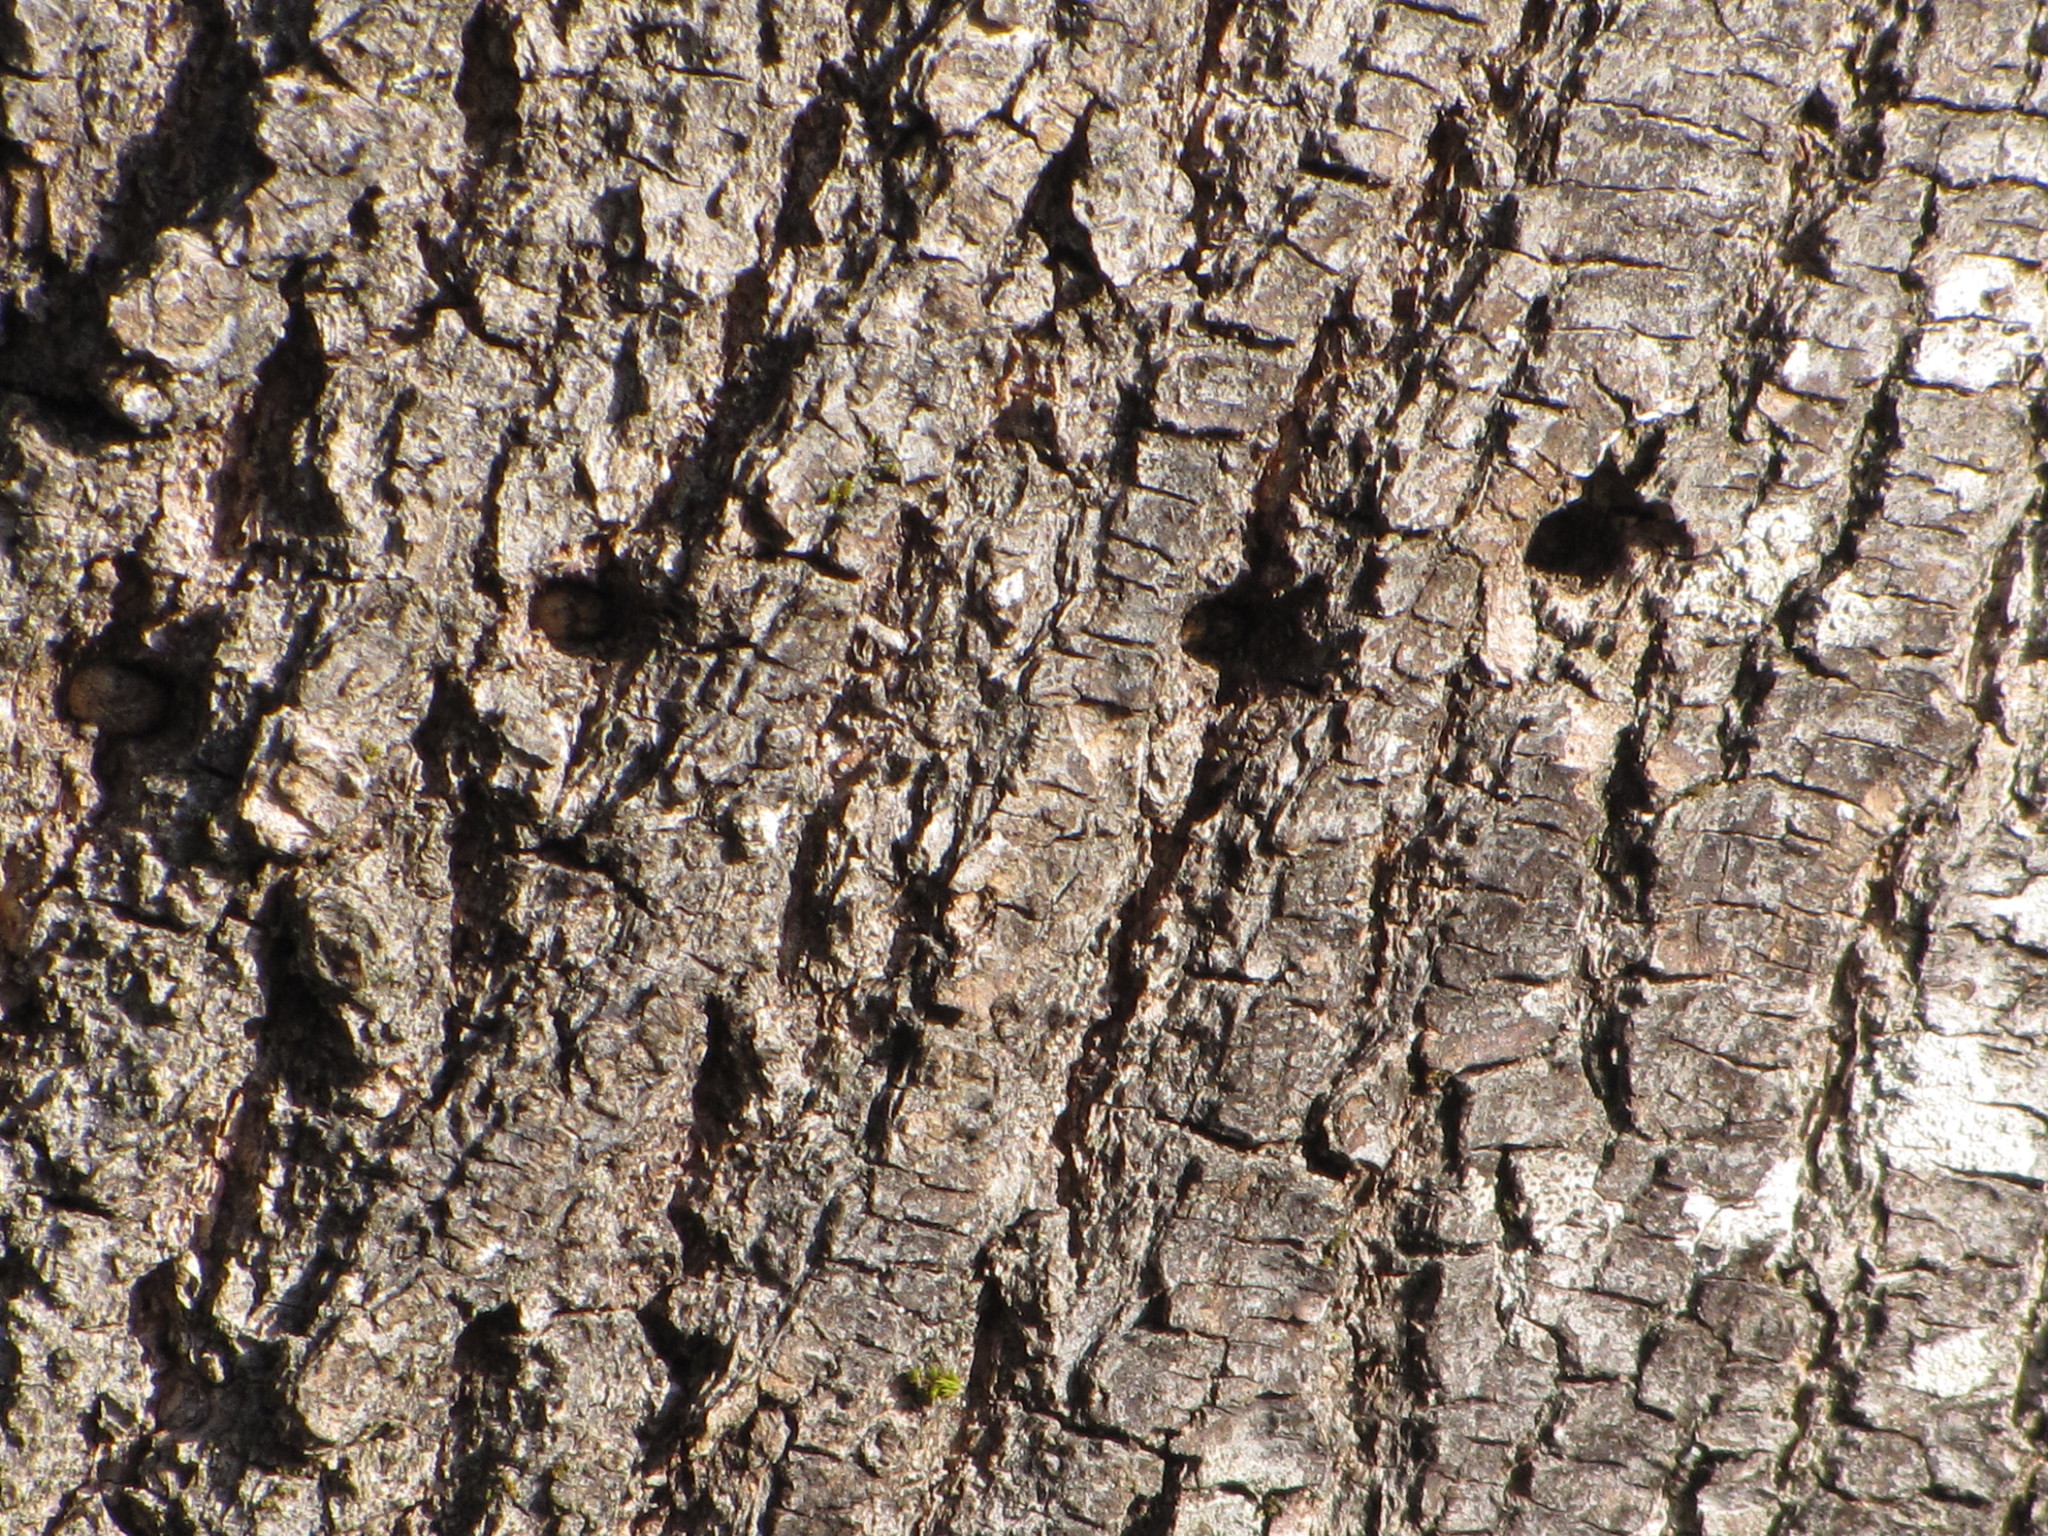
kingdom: Animalia
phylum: Chordata
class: Aves
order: Piciformes
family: Picidae
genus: Sphyrapicus
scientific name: Sphyrapicus ruber
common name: Red-breasted sapsucker
